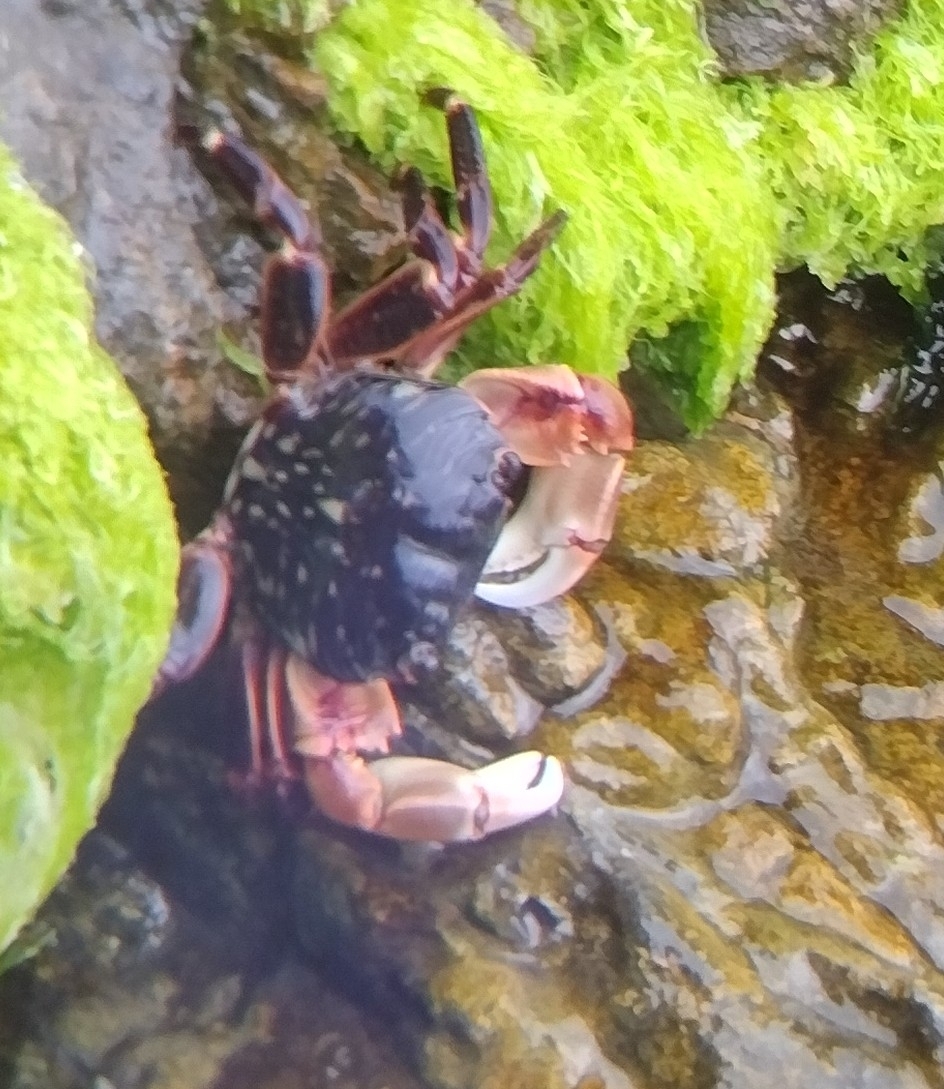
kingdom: Animalia
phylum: Arthropoda
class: Malacostraca
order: Decapoda
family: Grapsidae
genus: Pachygrapsus
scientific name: Pachygrapsus crassipes
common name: Striped shore crab
